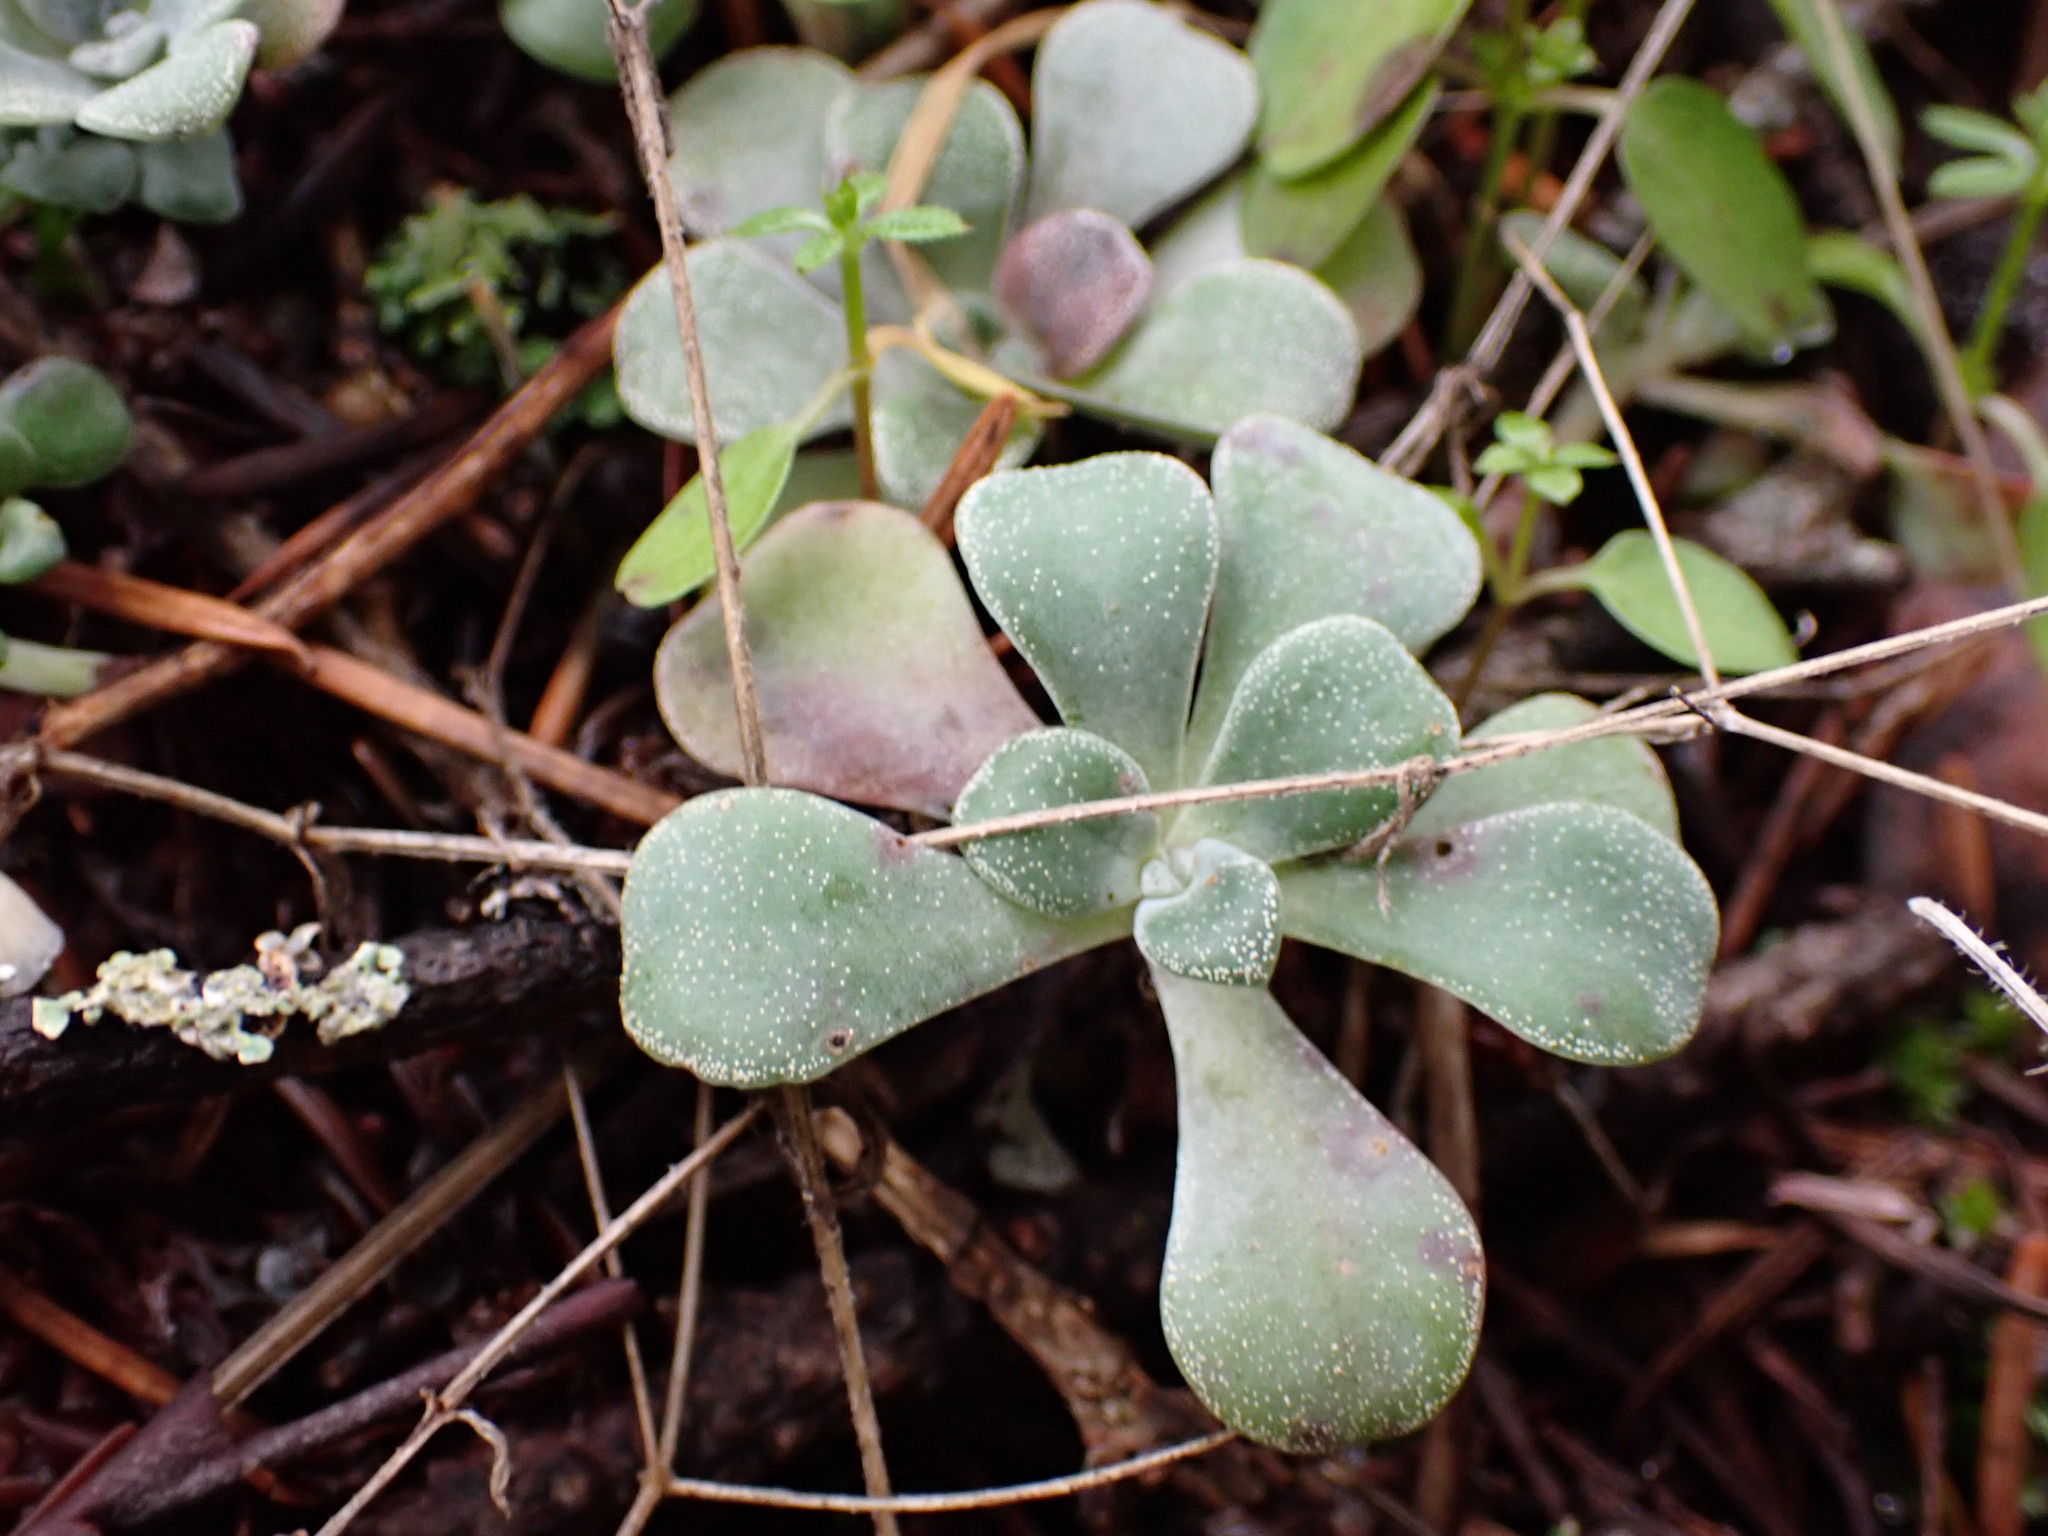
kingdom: Plantae
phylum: Tracheophyta
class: Magnoliopsida
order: Saxifragales
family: Crassulaceae
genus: Sedum
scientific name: Sedum spathulifolium
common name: Colorado stonecrop
